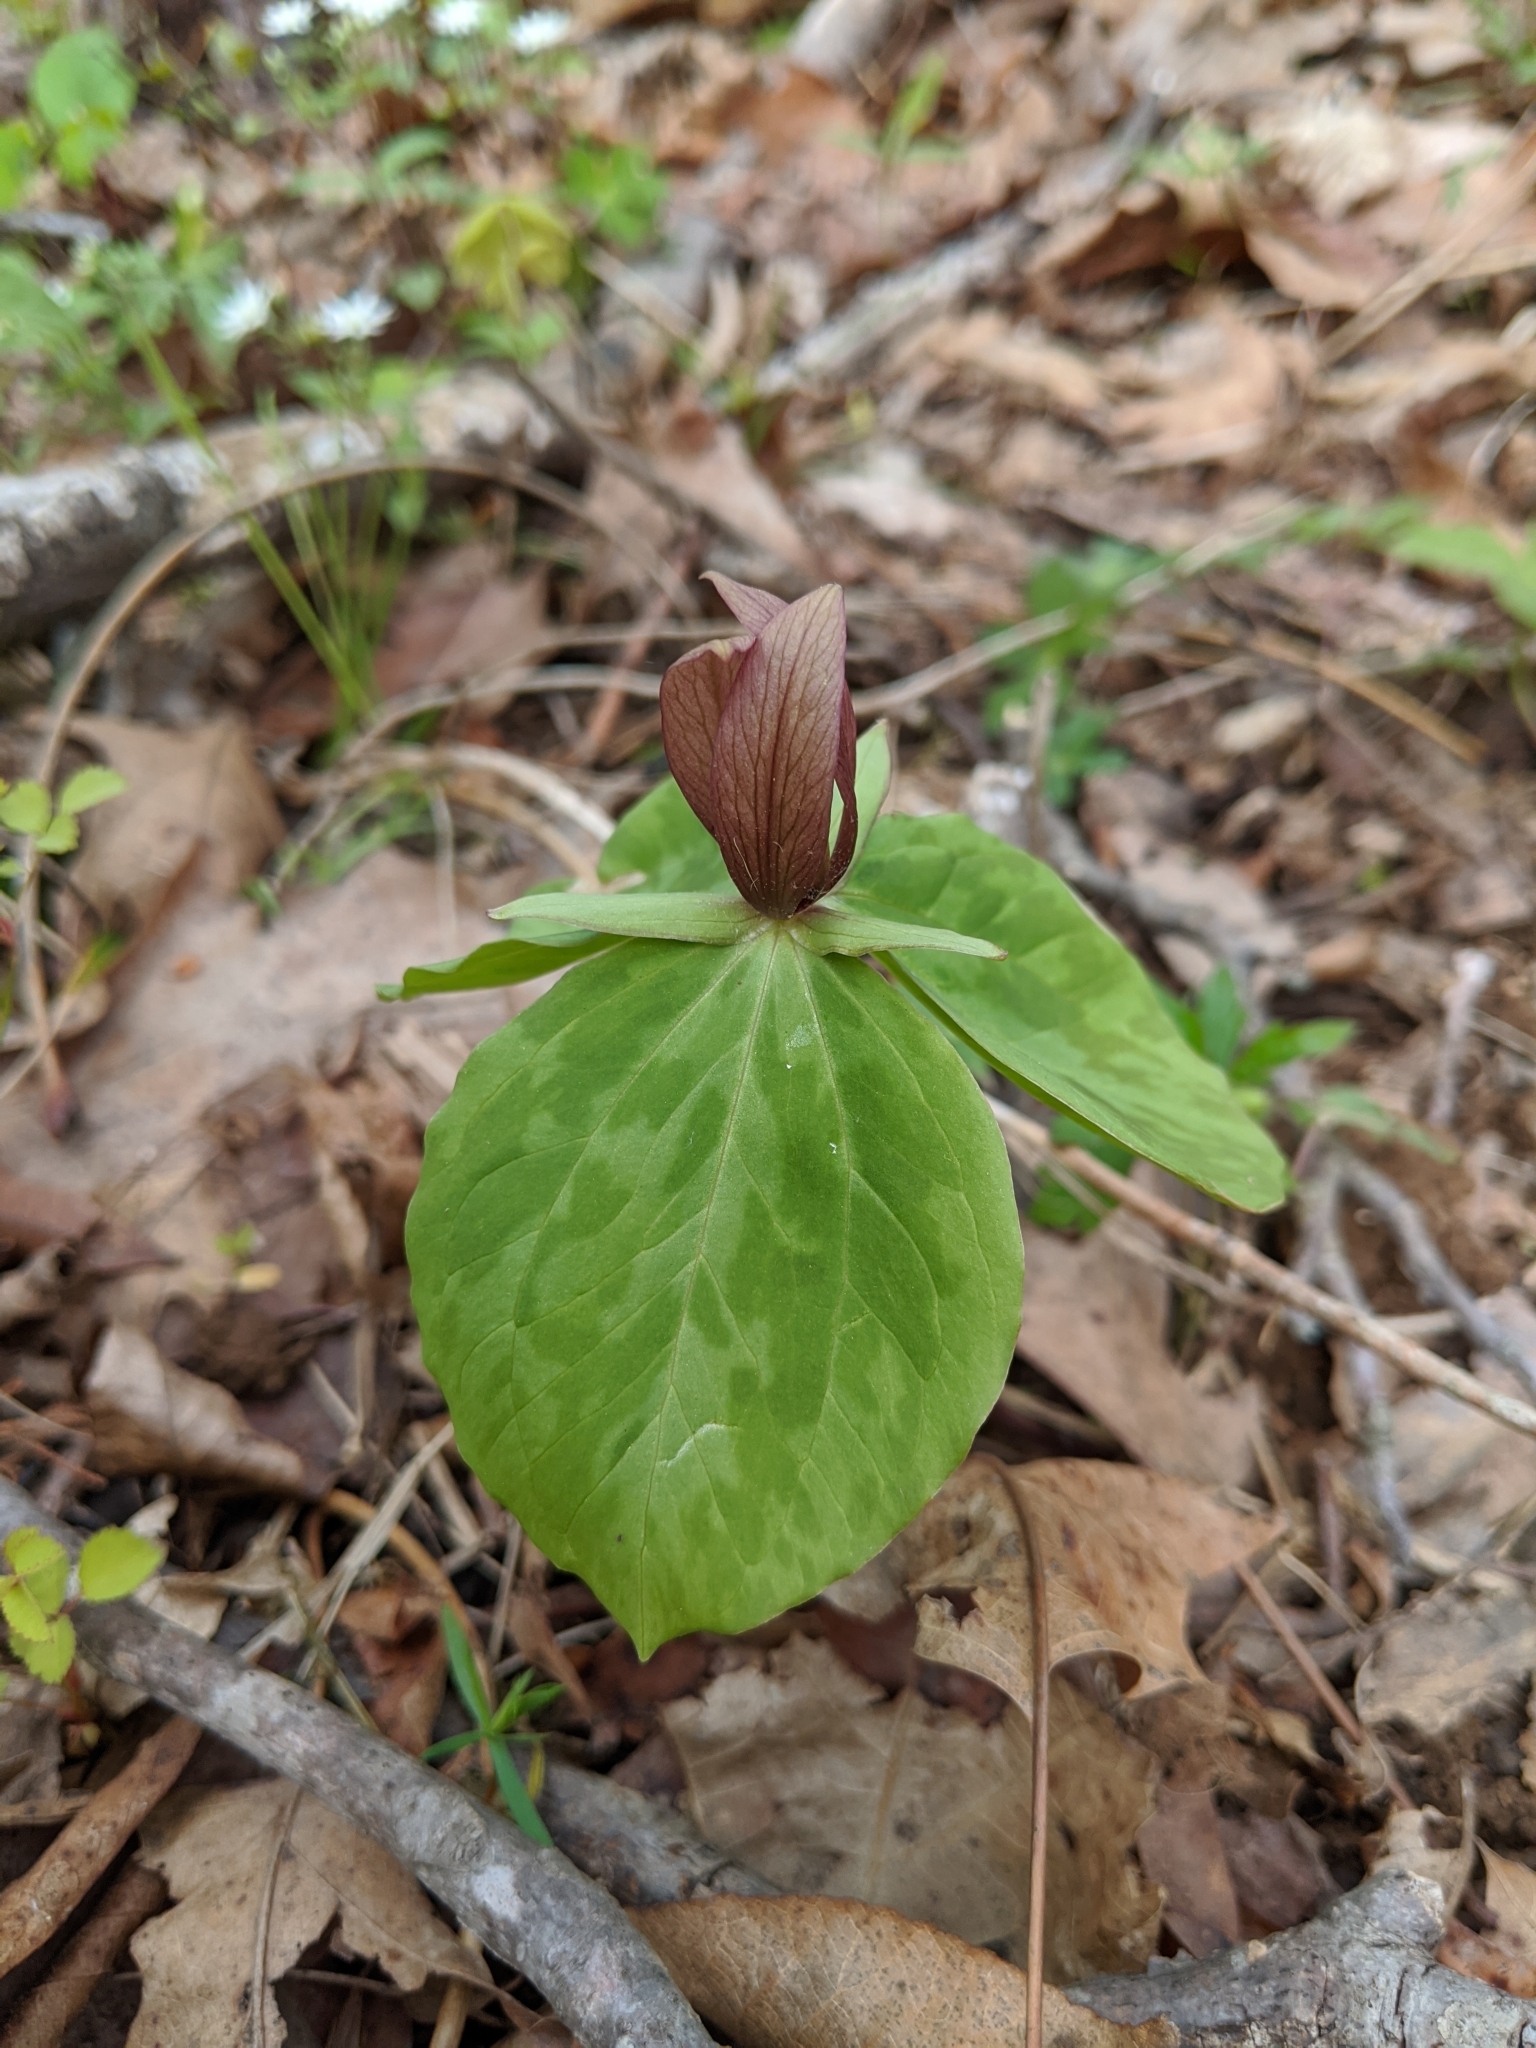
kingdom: Plantae
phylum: Tracheophyta
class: Liliopsida
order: Liliales
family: Melanthiaceae
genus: Trillium
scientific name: Trillium sessile
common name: Sessile trillium
